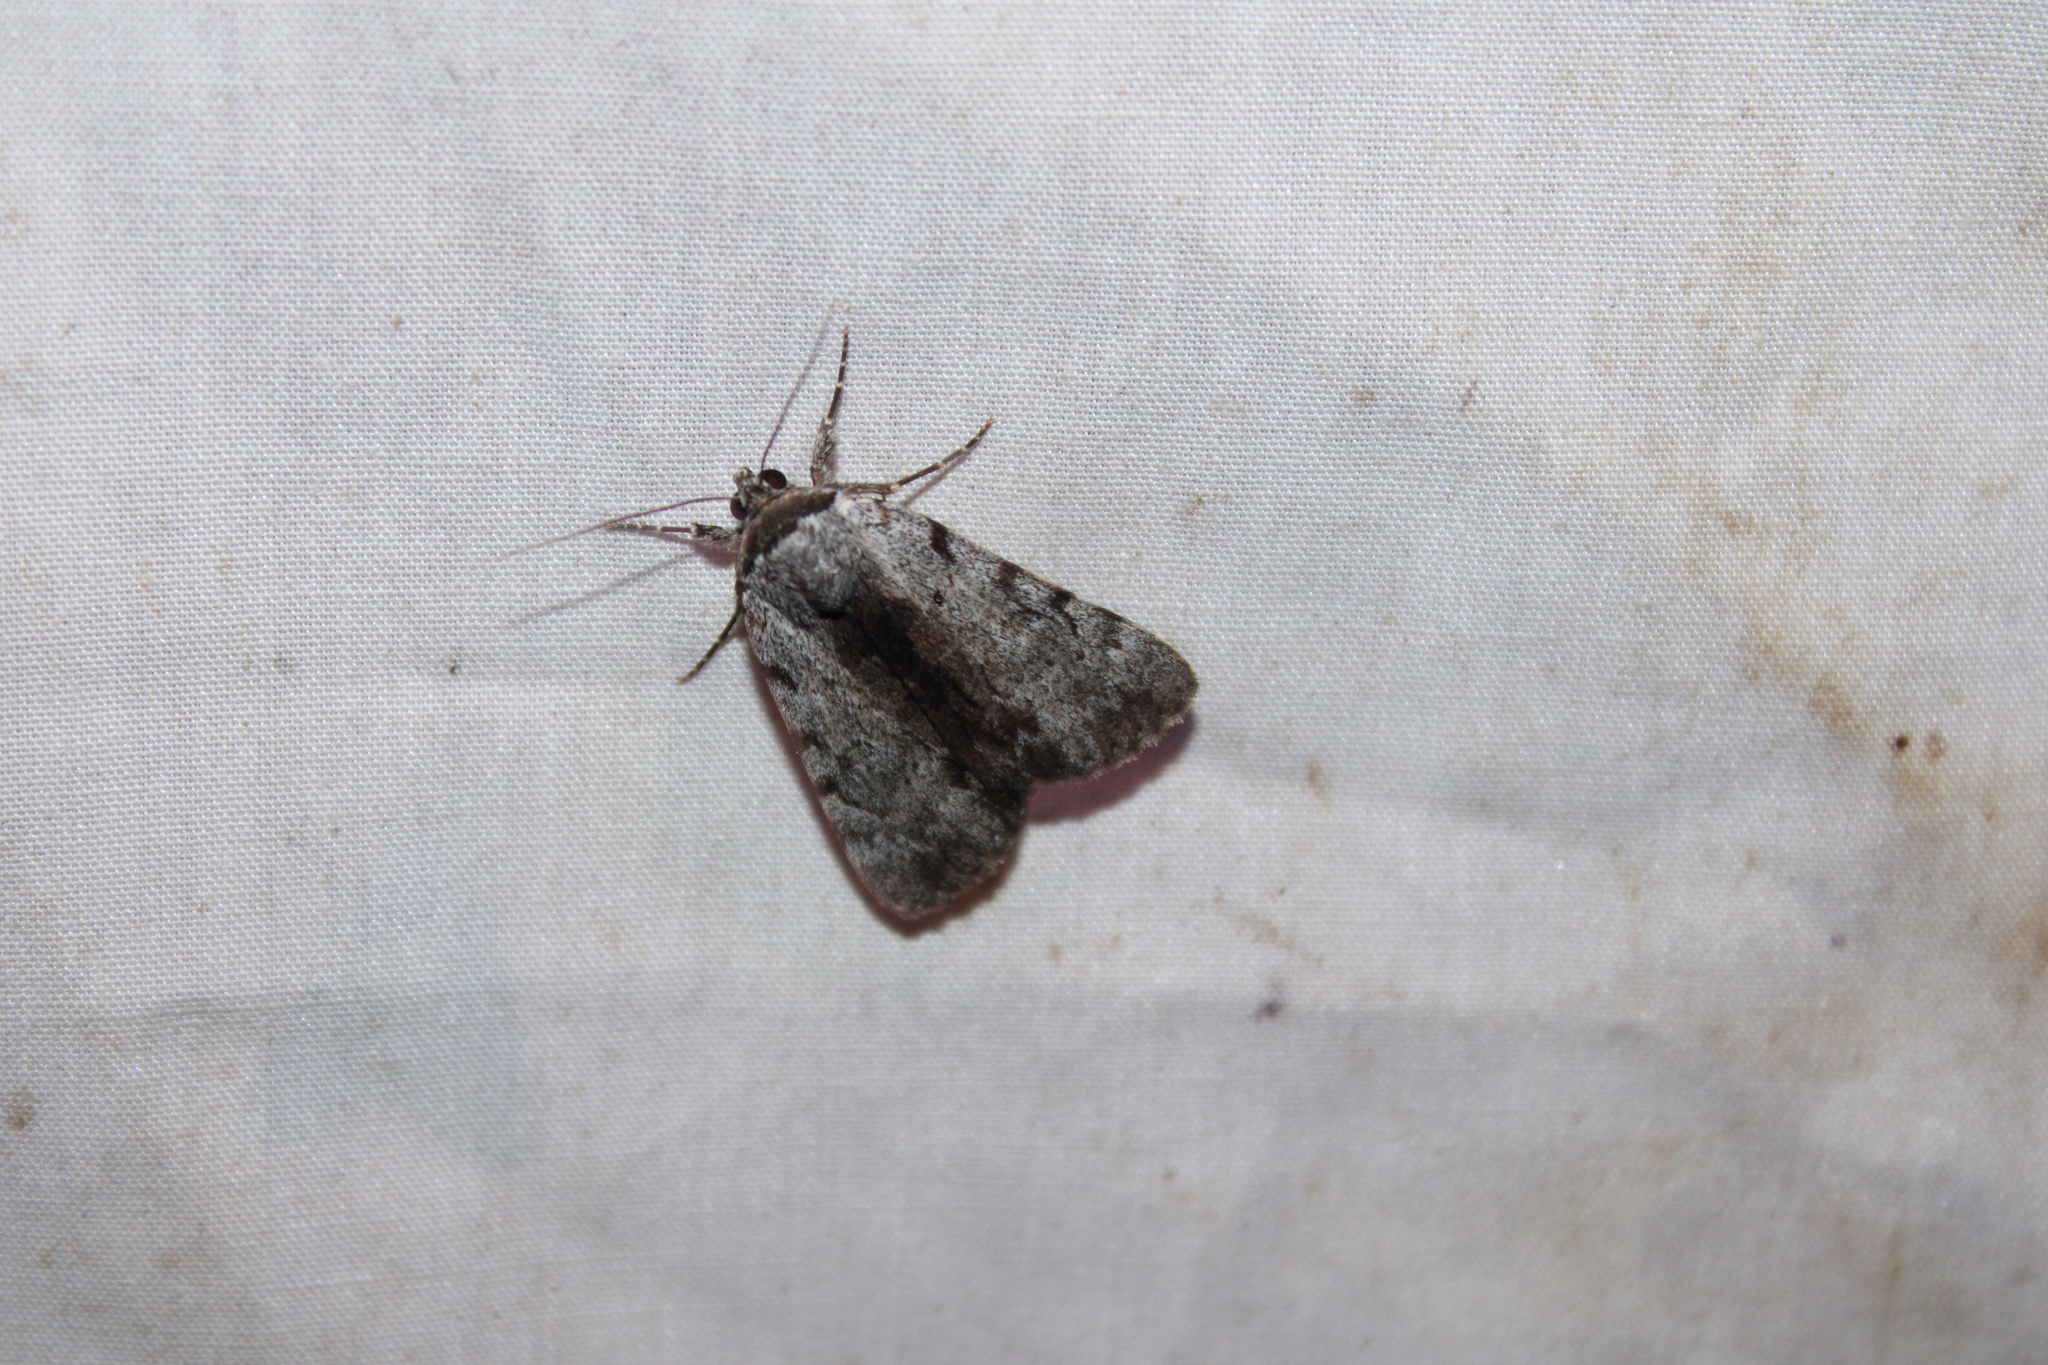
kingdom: Animalia
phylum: Arthropoda
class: Insecta
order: Lepidoptera
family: Erebidae
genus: Catocala
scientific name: Catocala sordida
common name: Sordid underwing
